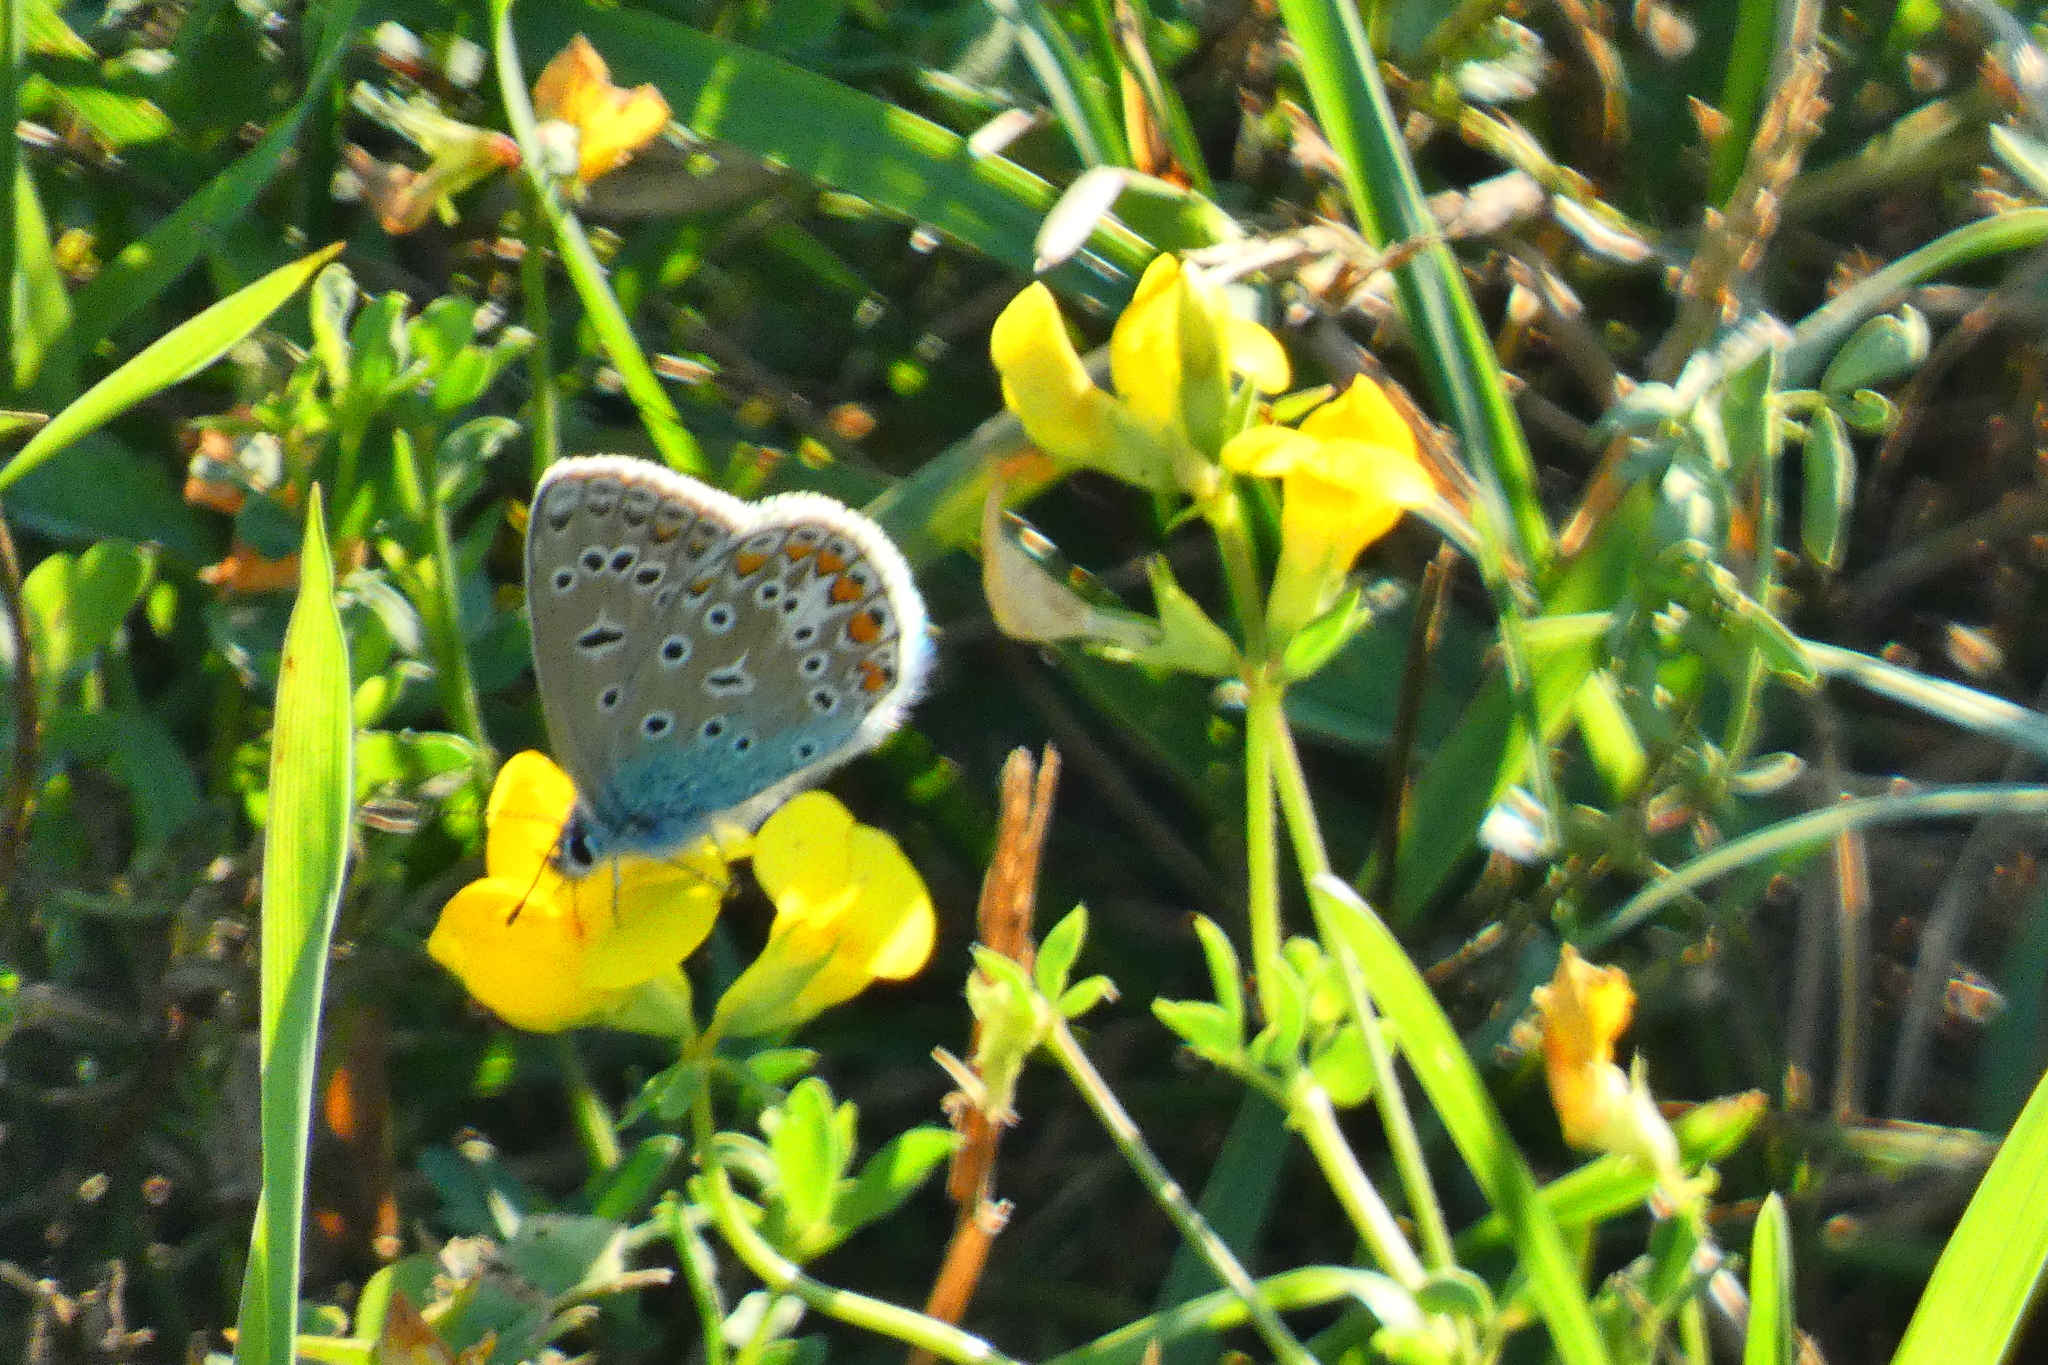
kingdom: Animalia
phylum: Arthropoda
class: Insecta
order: Lepidoptera
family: Lycaenidae
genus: Polyommatus
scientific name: Polyommatus icarus
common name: Common blue
